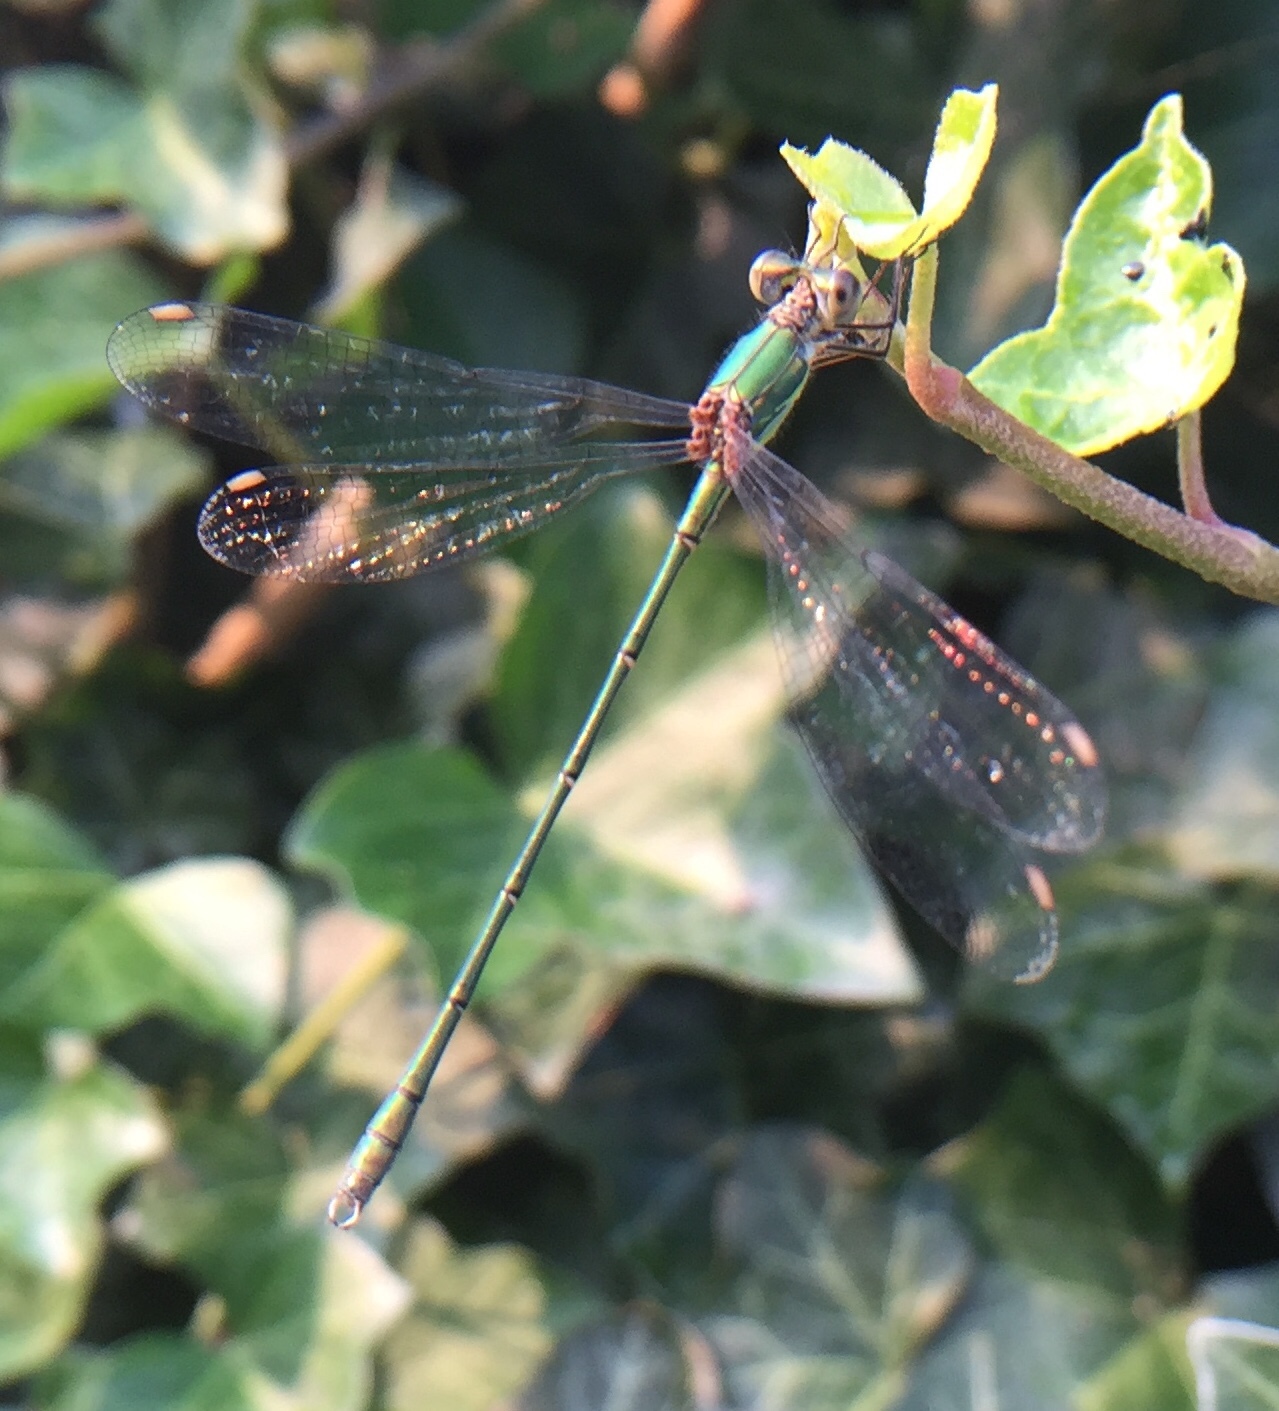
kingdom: Animalia
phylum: Arthropoda
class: Insecta
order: Odonata
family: Lestidae
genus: Chalcolestes
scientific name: Chalcolestes viridis
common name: Green emerald damselfly
